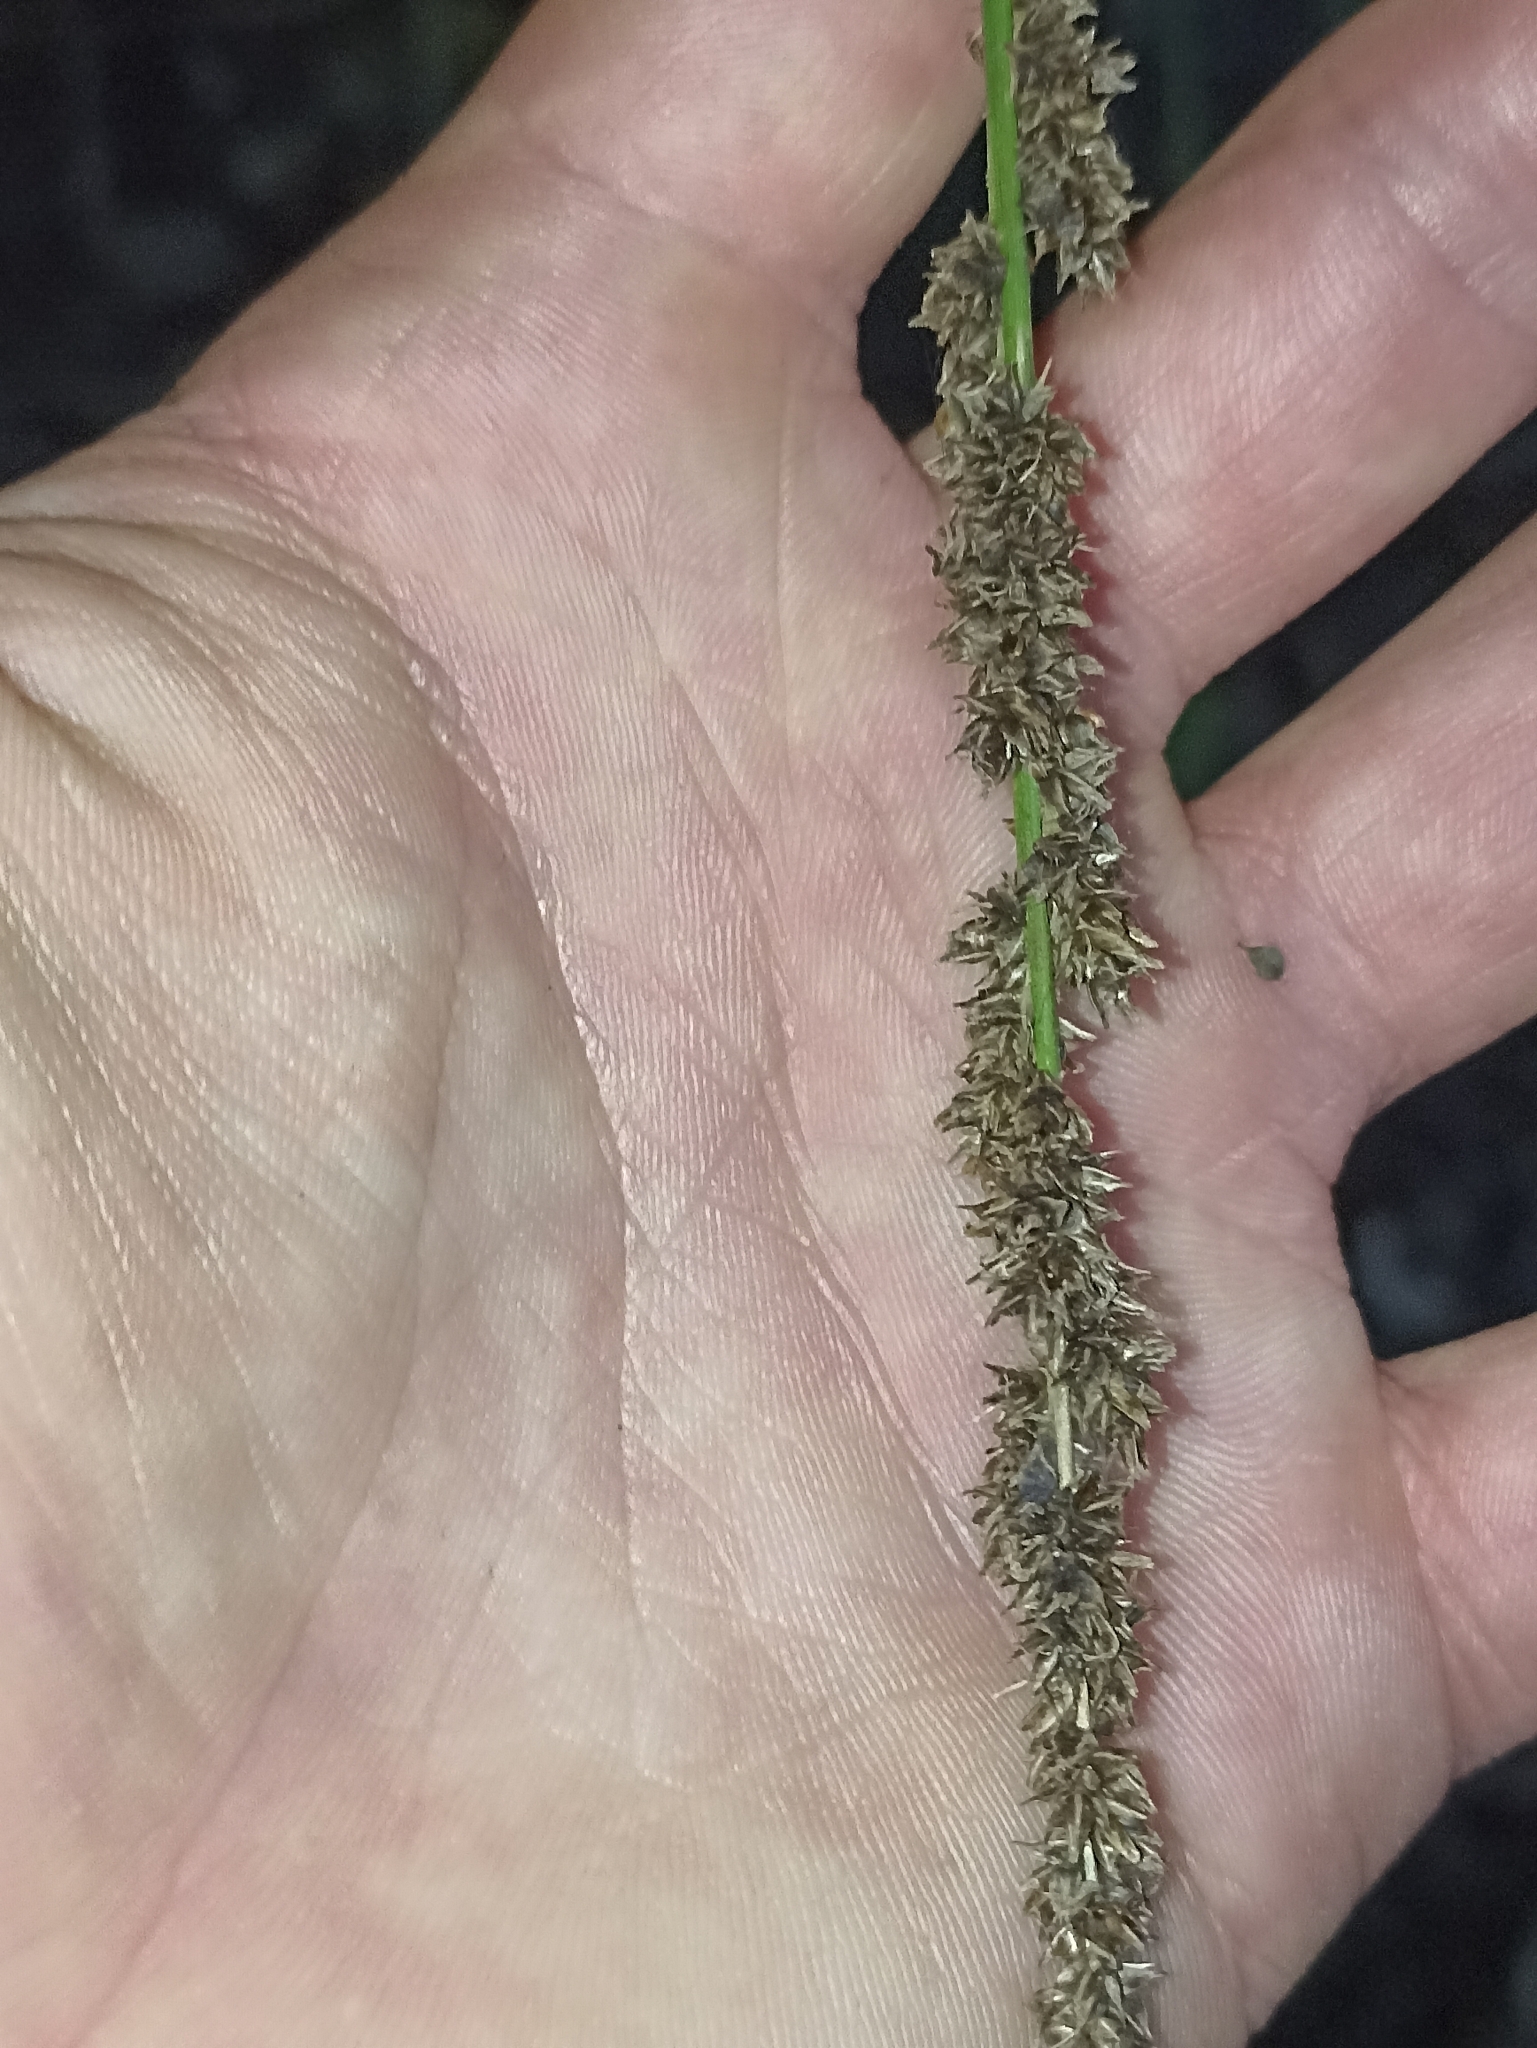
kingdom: Plantae
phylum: Tracheophyta
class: Liliopsida
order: Poales
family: Cyperaceae
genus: Carex
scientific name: Carex appressa
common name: Tussock sedge
